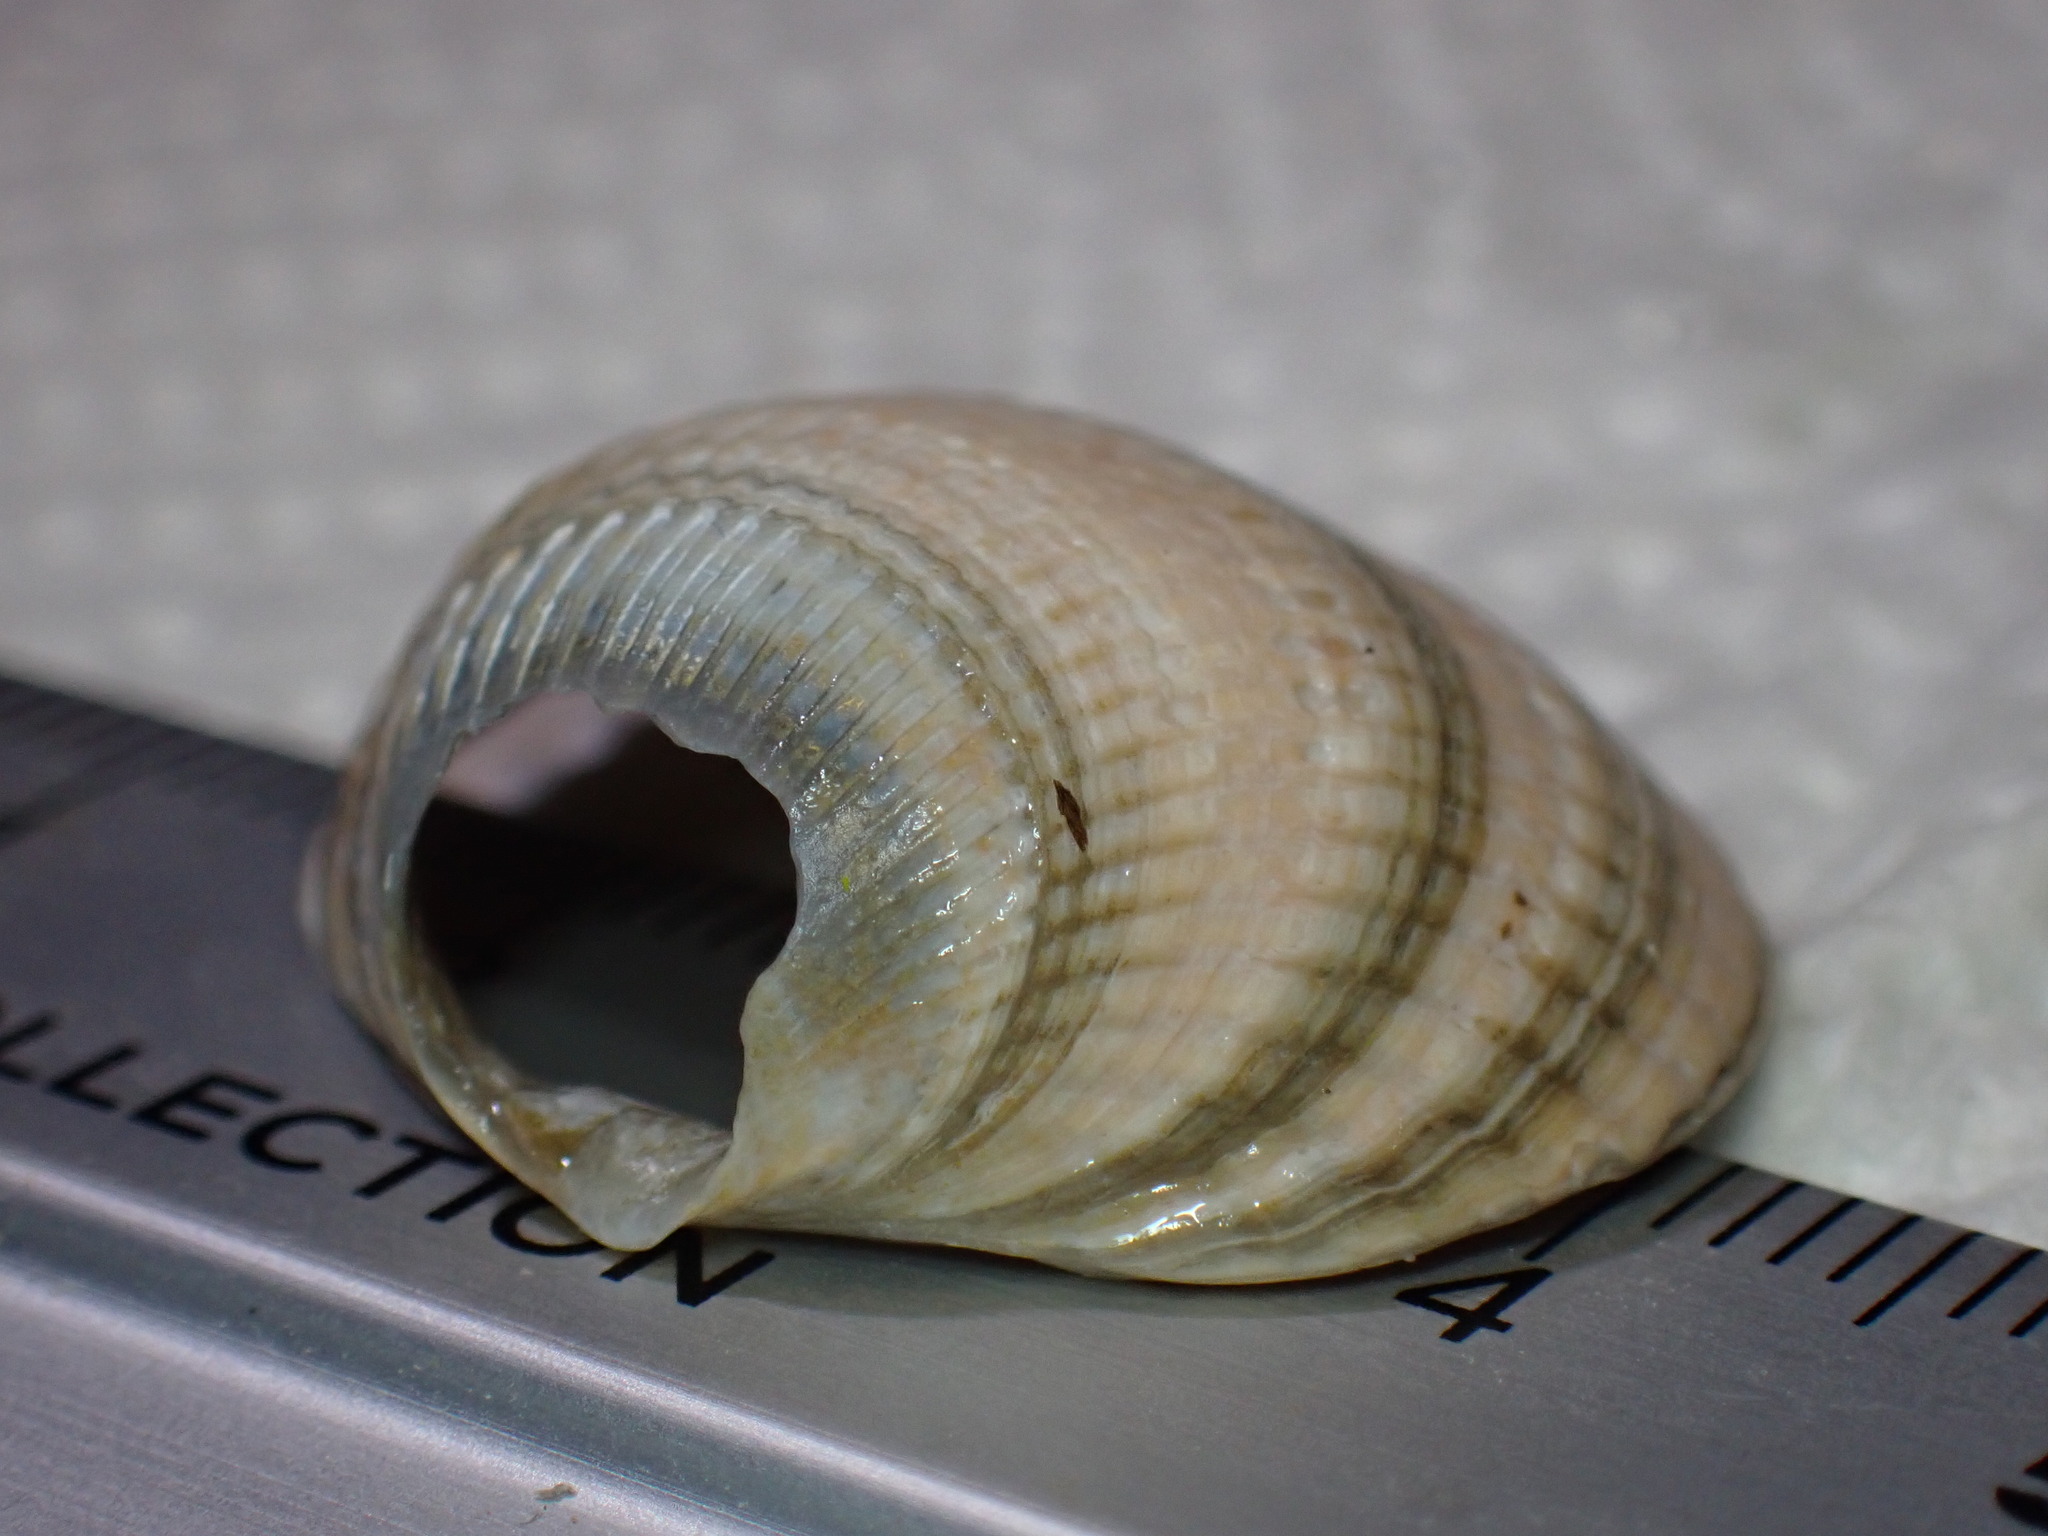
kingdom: Animalia
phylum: Mollusca
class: Bivalvia
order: Cardiida
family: Cardiidae
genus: Cerastoderma
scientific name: Cerastoderma edule
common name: Common cockle
